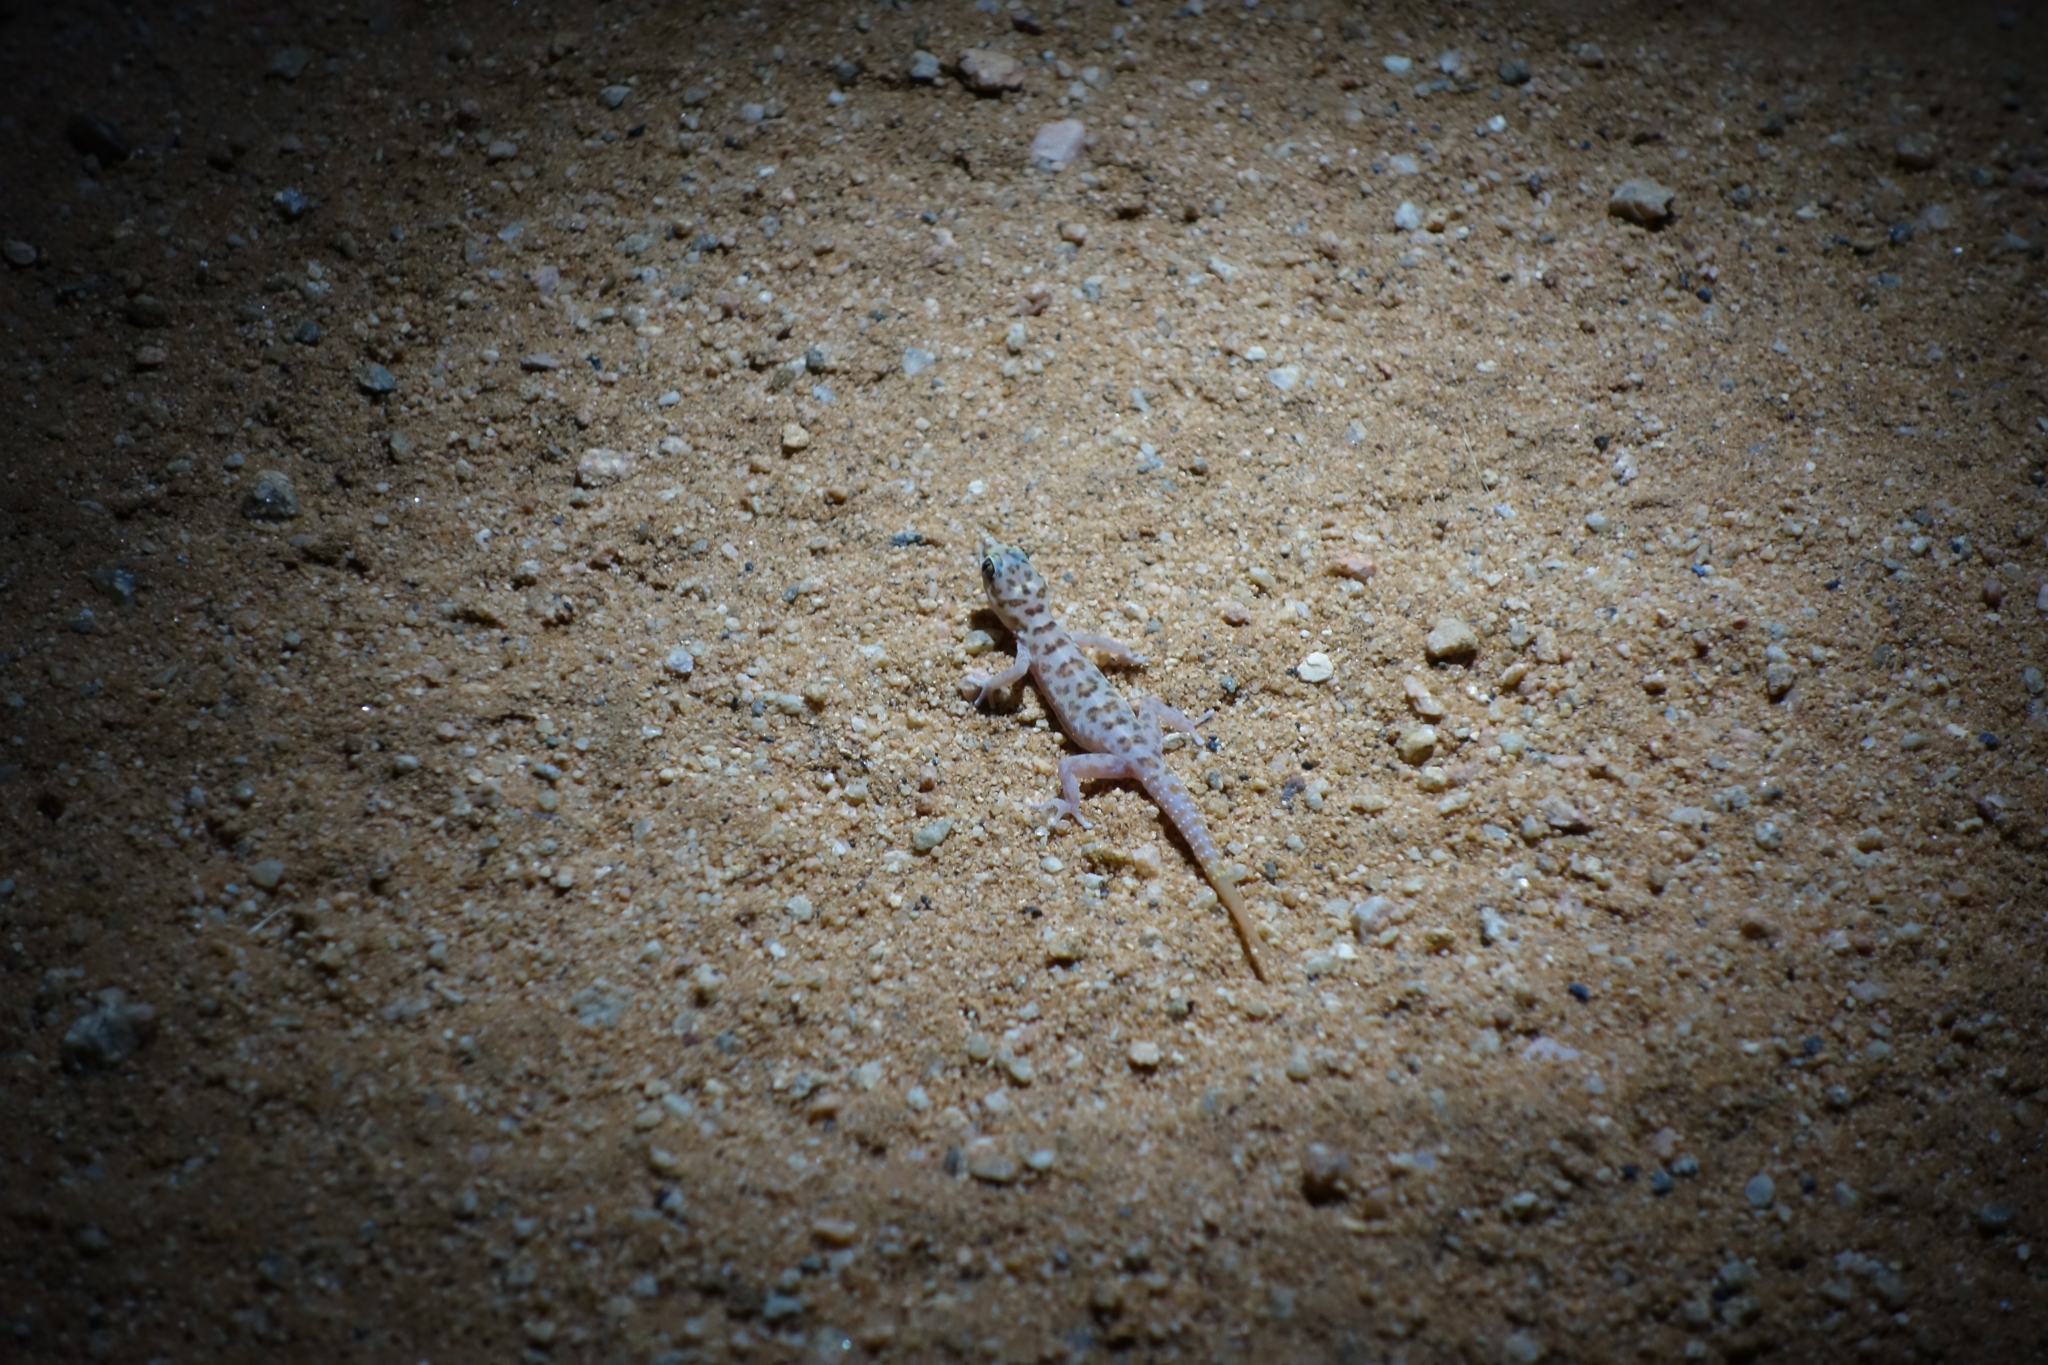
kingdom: Animalia
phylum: Chordata
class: Squamata
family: Gekkonidae
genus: Pachydactylus
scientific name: Pachydactylus montanus
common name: Montane thick-toed gecko
